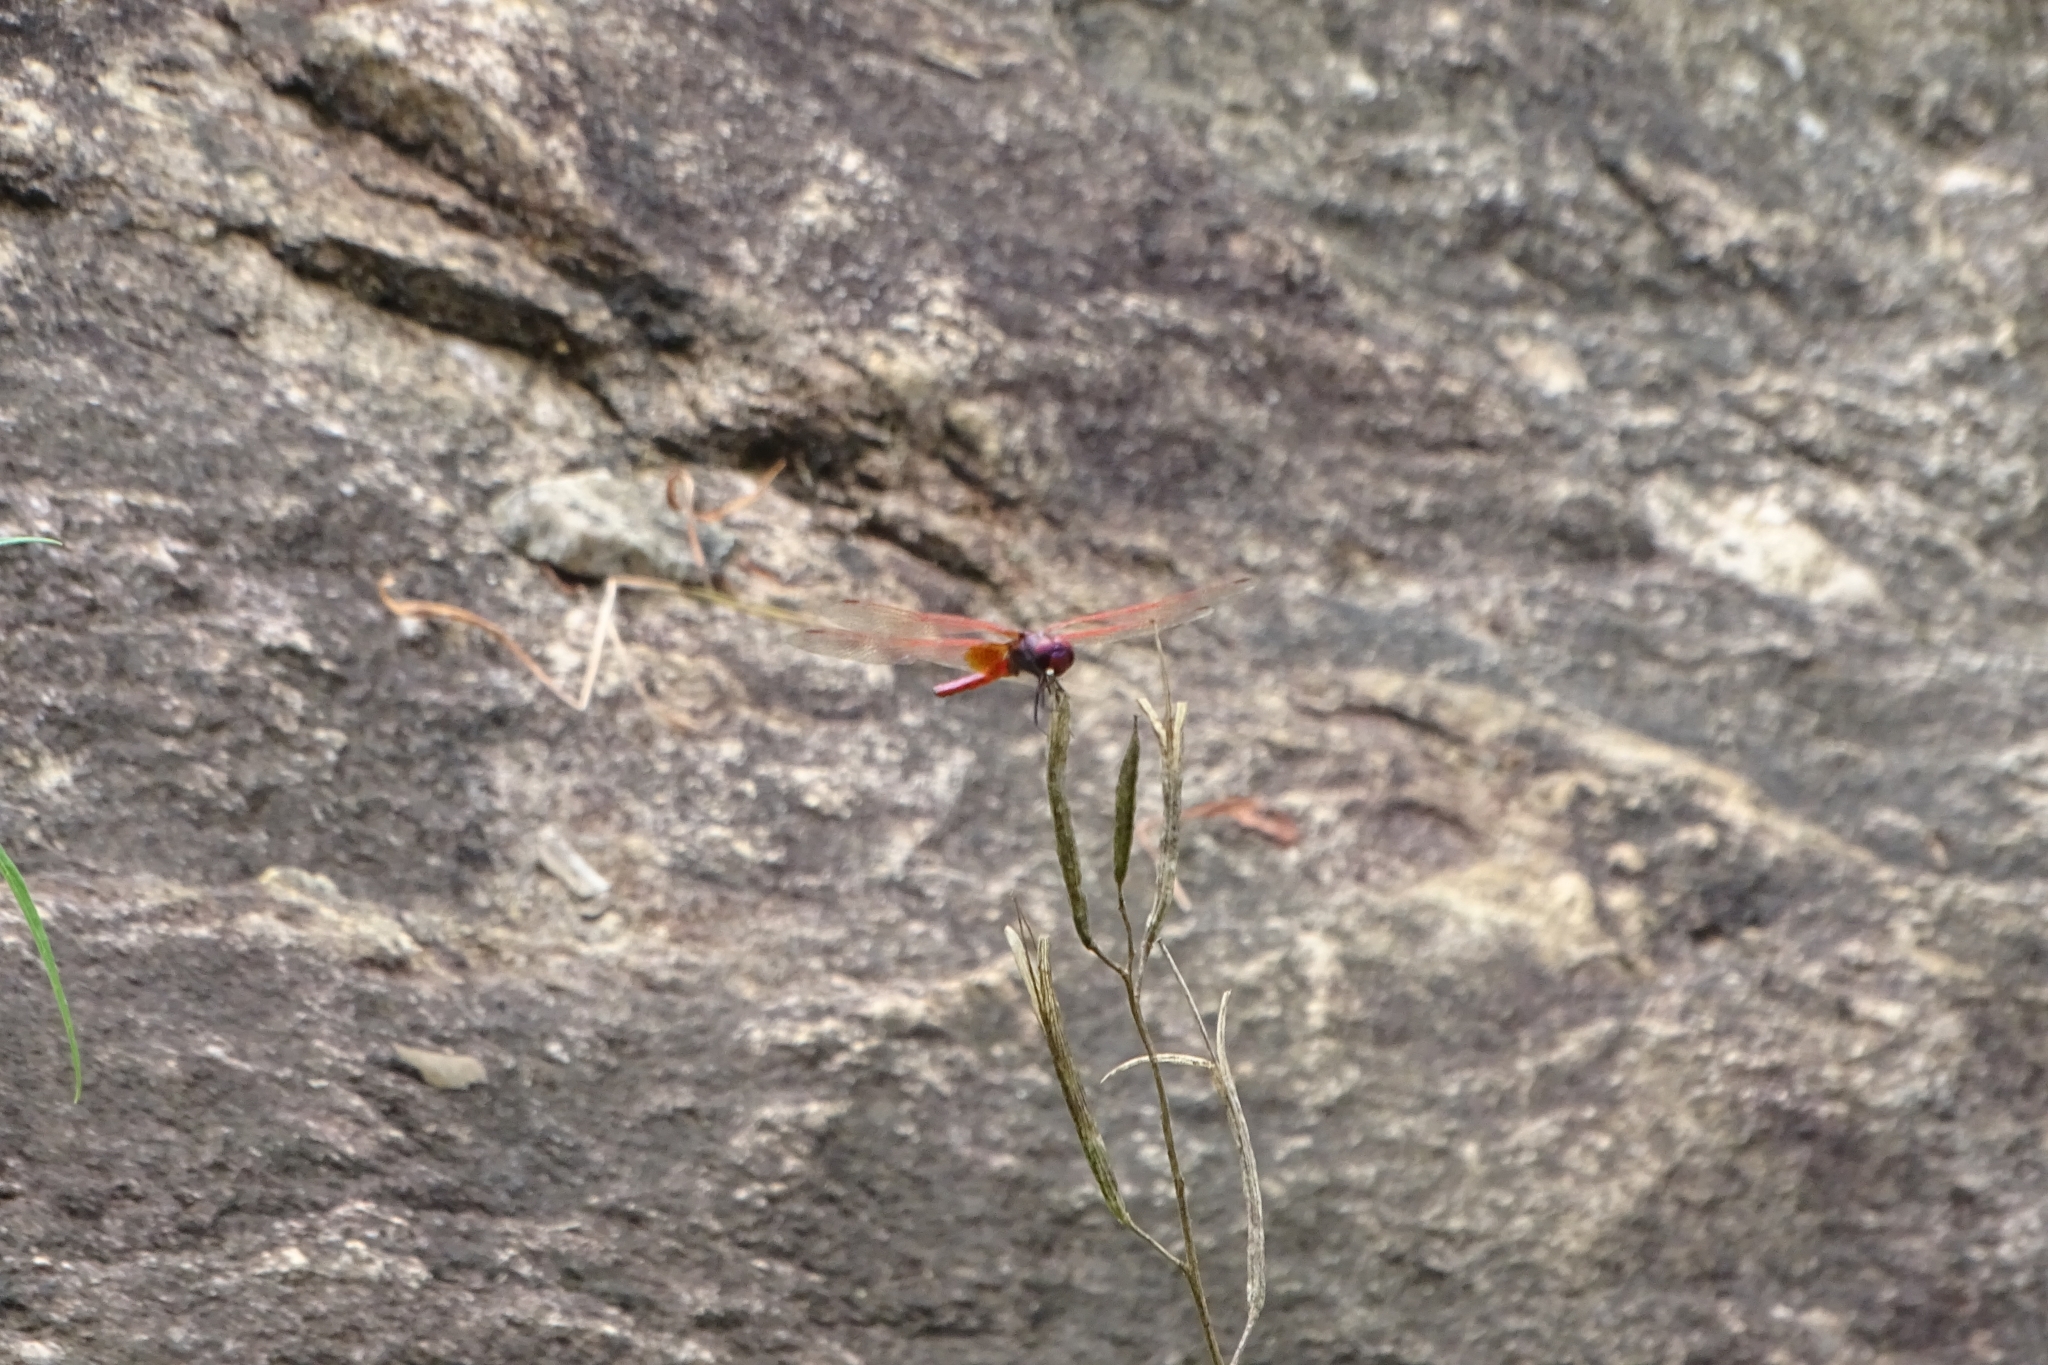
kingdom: Animalia
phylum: Arthropoda
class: Insecta
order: Odonata
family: Libellulidae
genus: Trithemis
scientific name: Trithemis aurora
